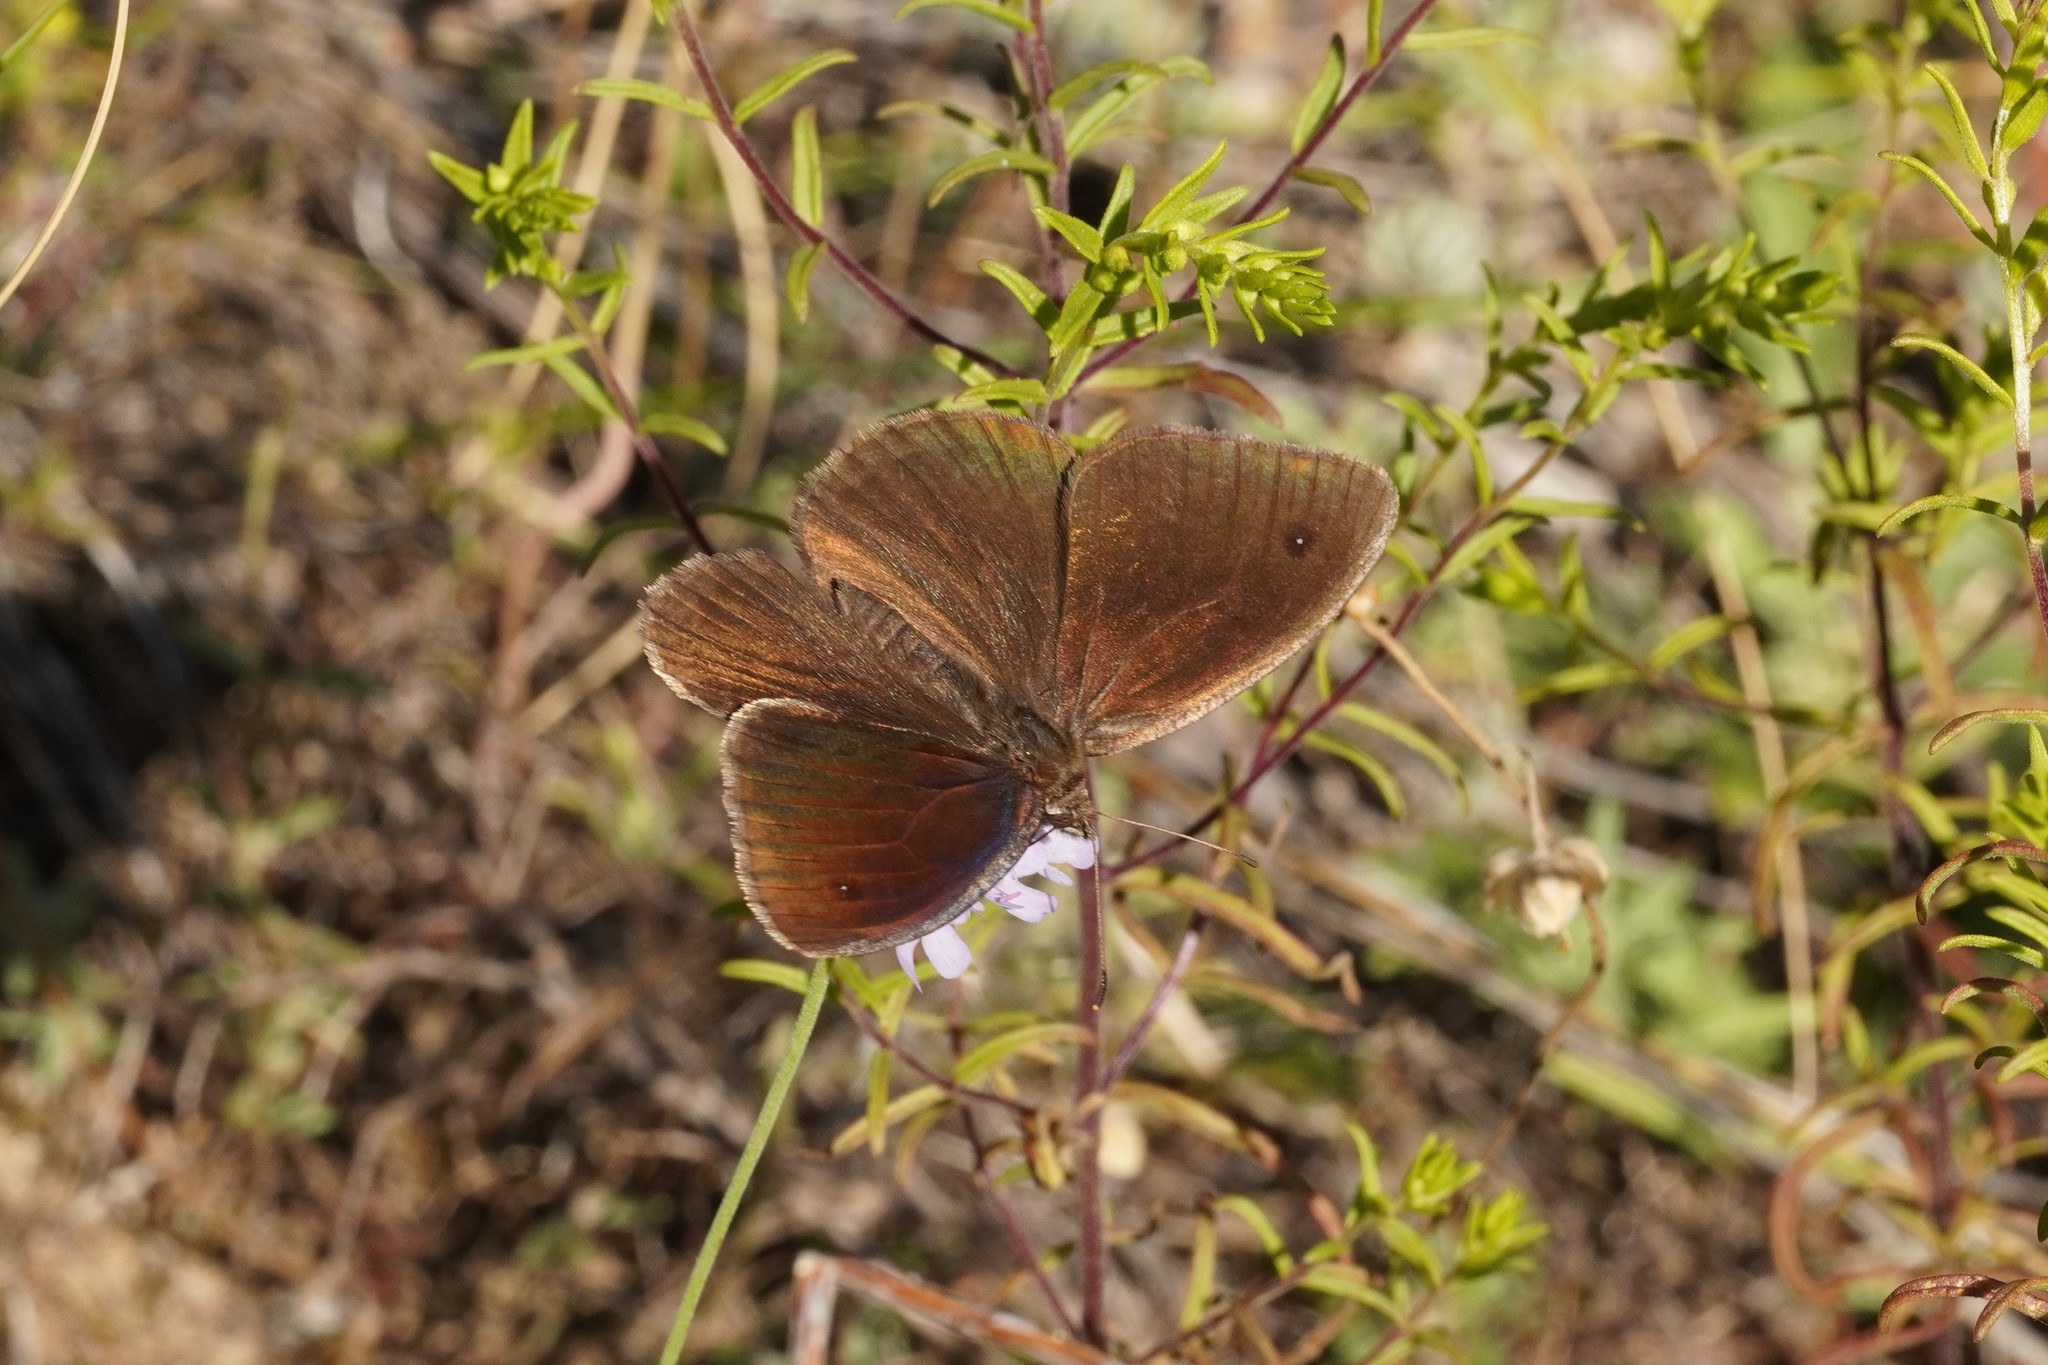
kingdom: Animalia
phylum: Arthropoda
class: Insecta
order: Lepidoptera
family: Nymphalidae
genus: Satyrus
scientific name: Satyrus actaea
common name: Black satyr
